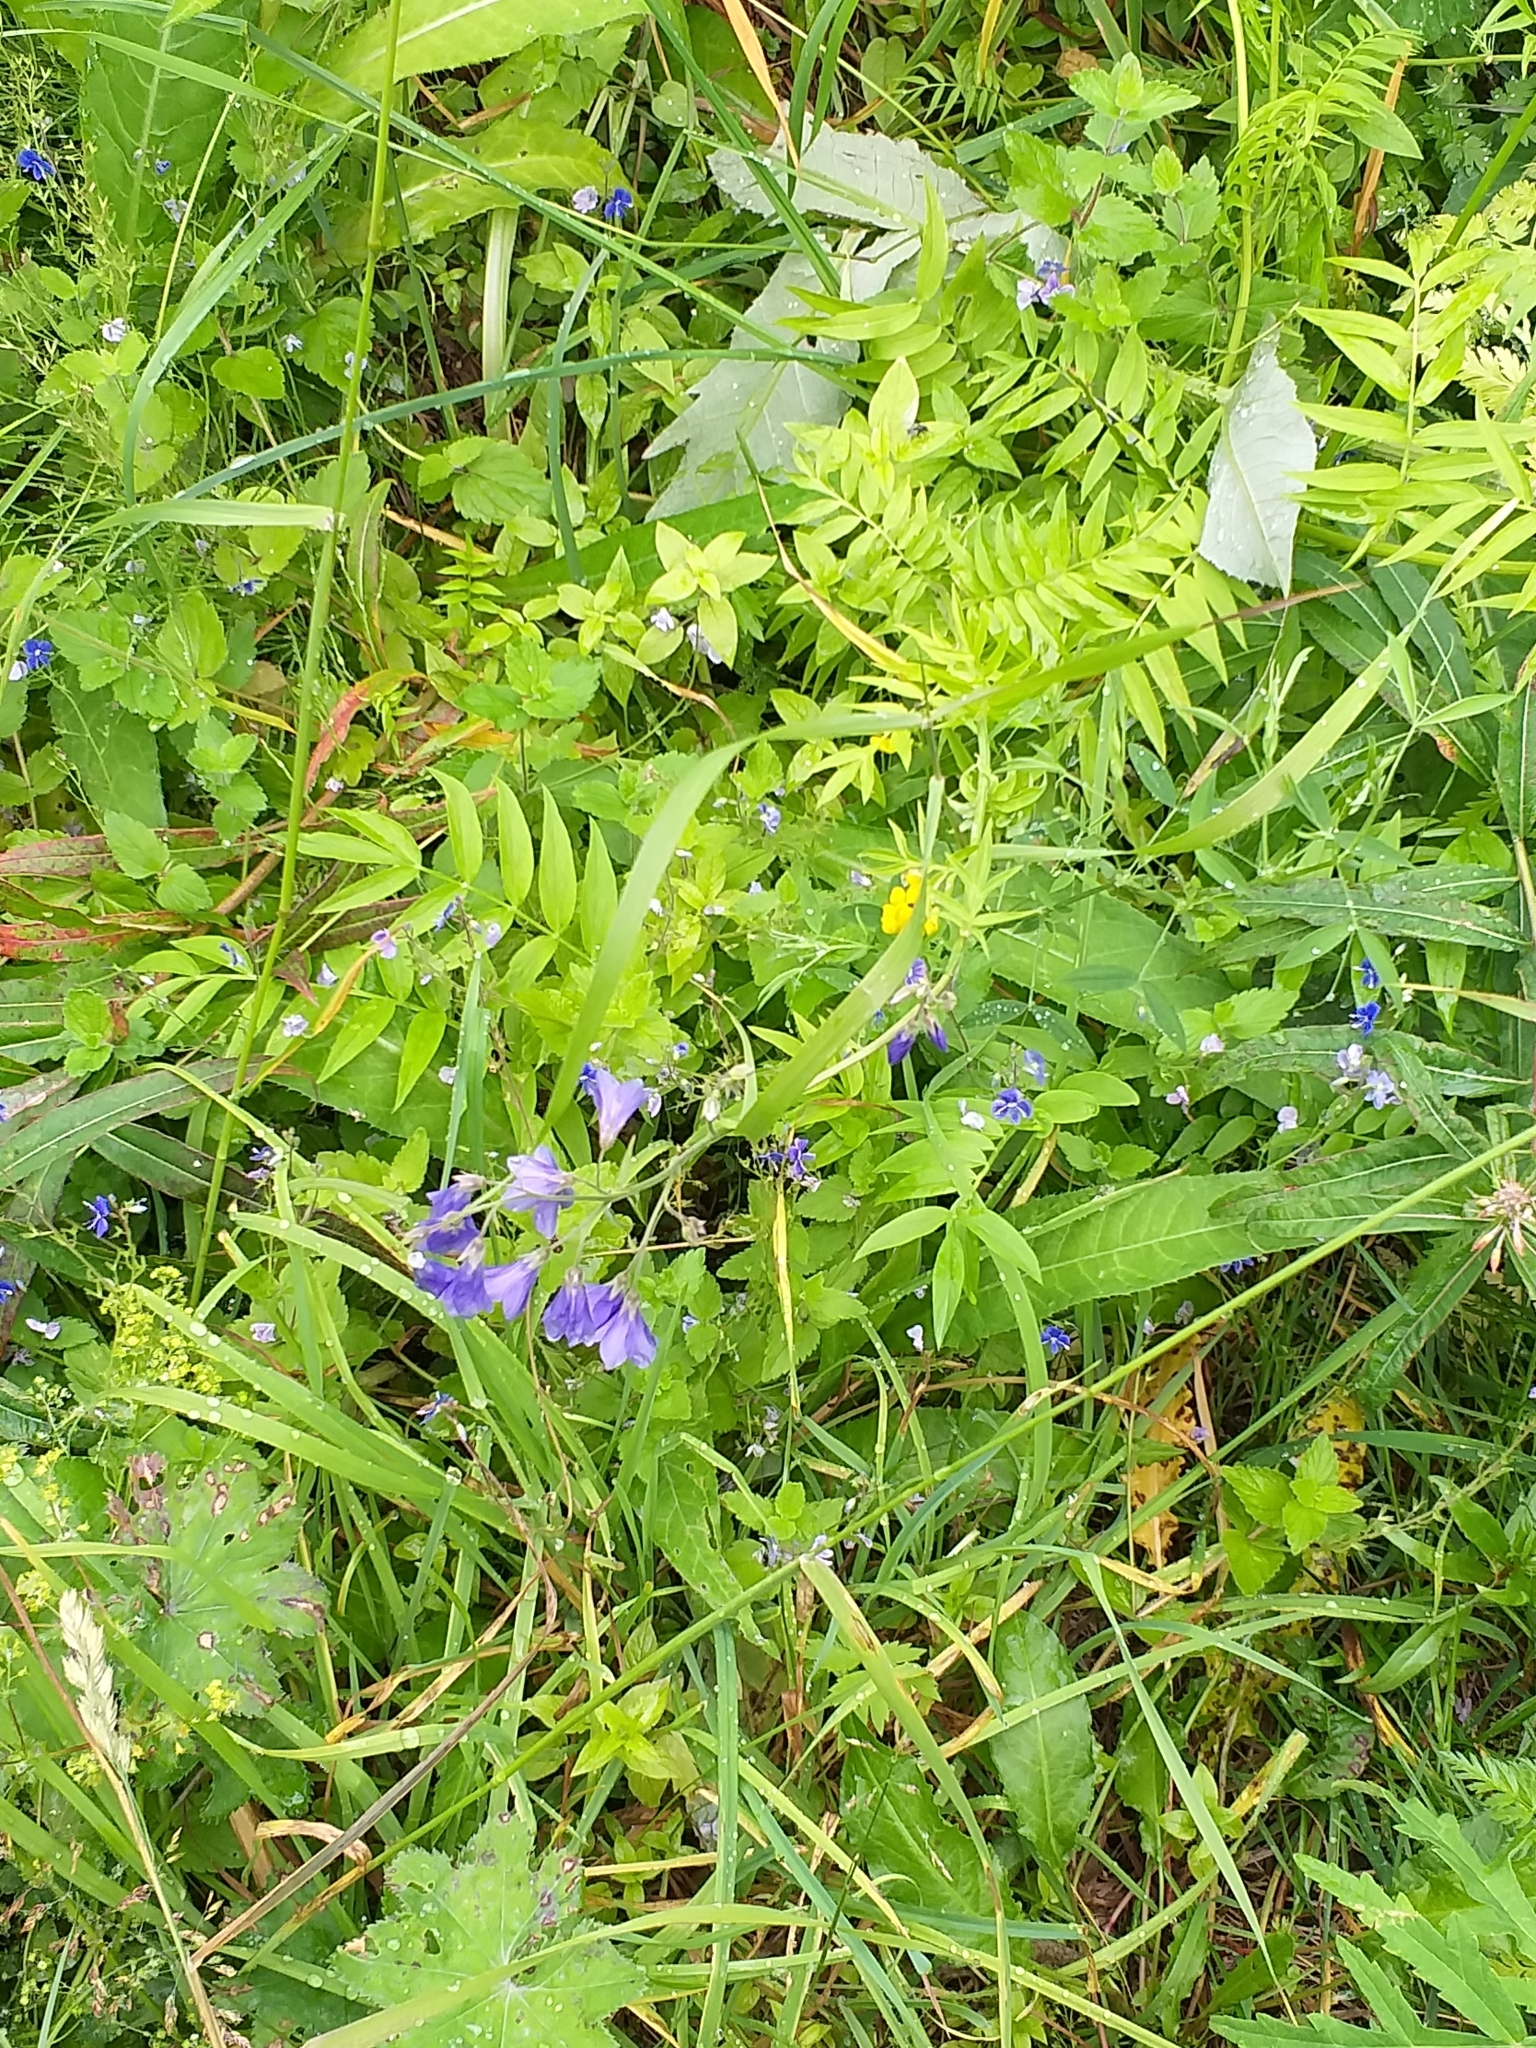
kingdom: Plantae
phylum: Tracheophyta
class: Magnoliopsida
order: Ericales
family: Polemoniaceae
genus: Polemonium
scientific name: Polemonium caeruleum
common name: Jacob's-ladder
